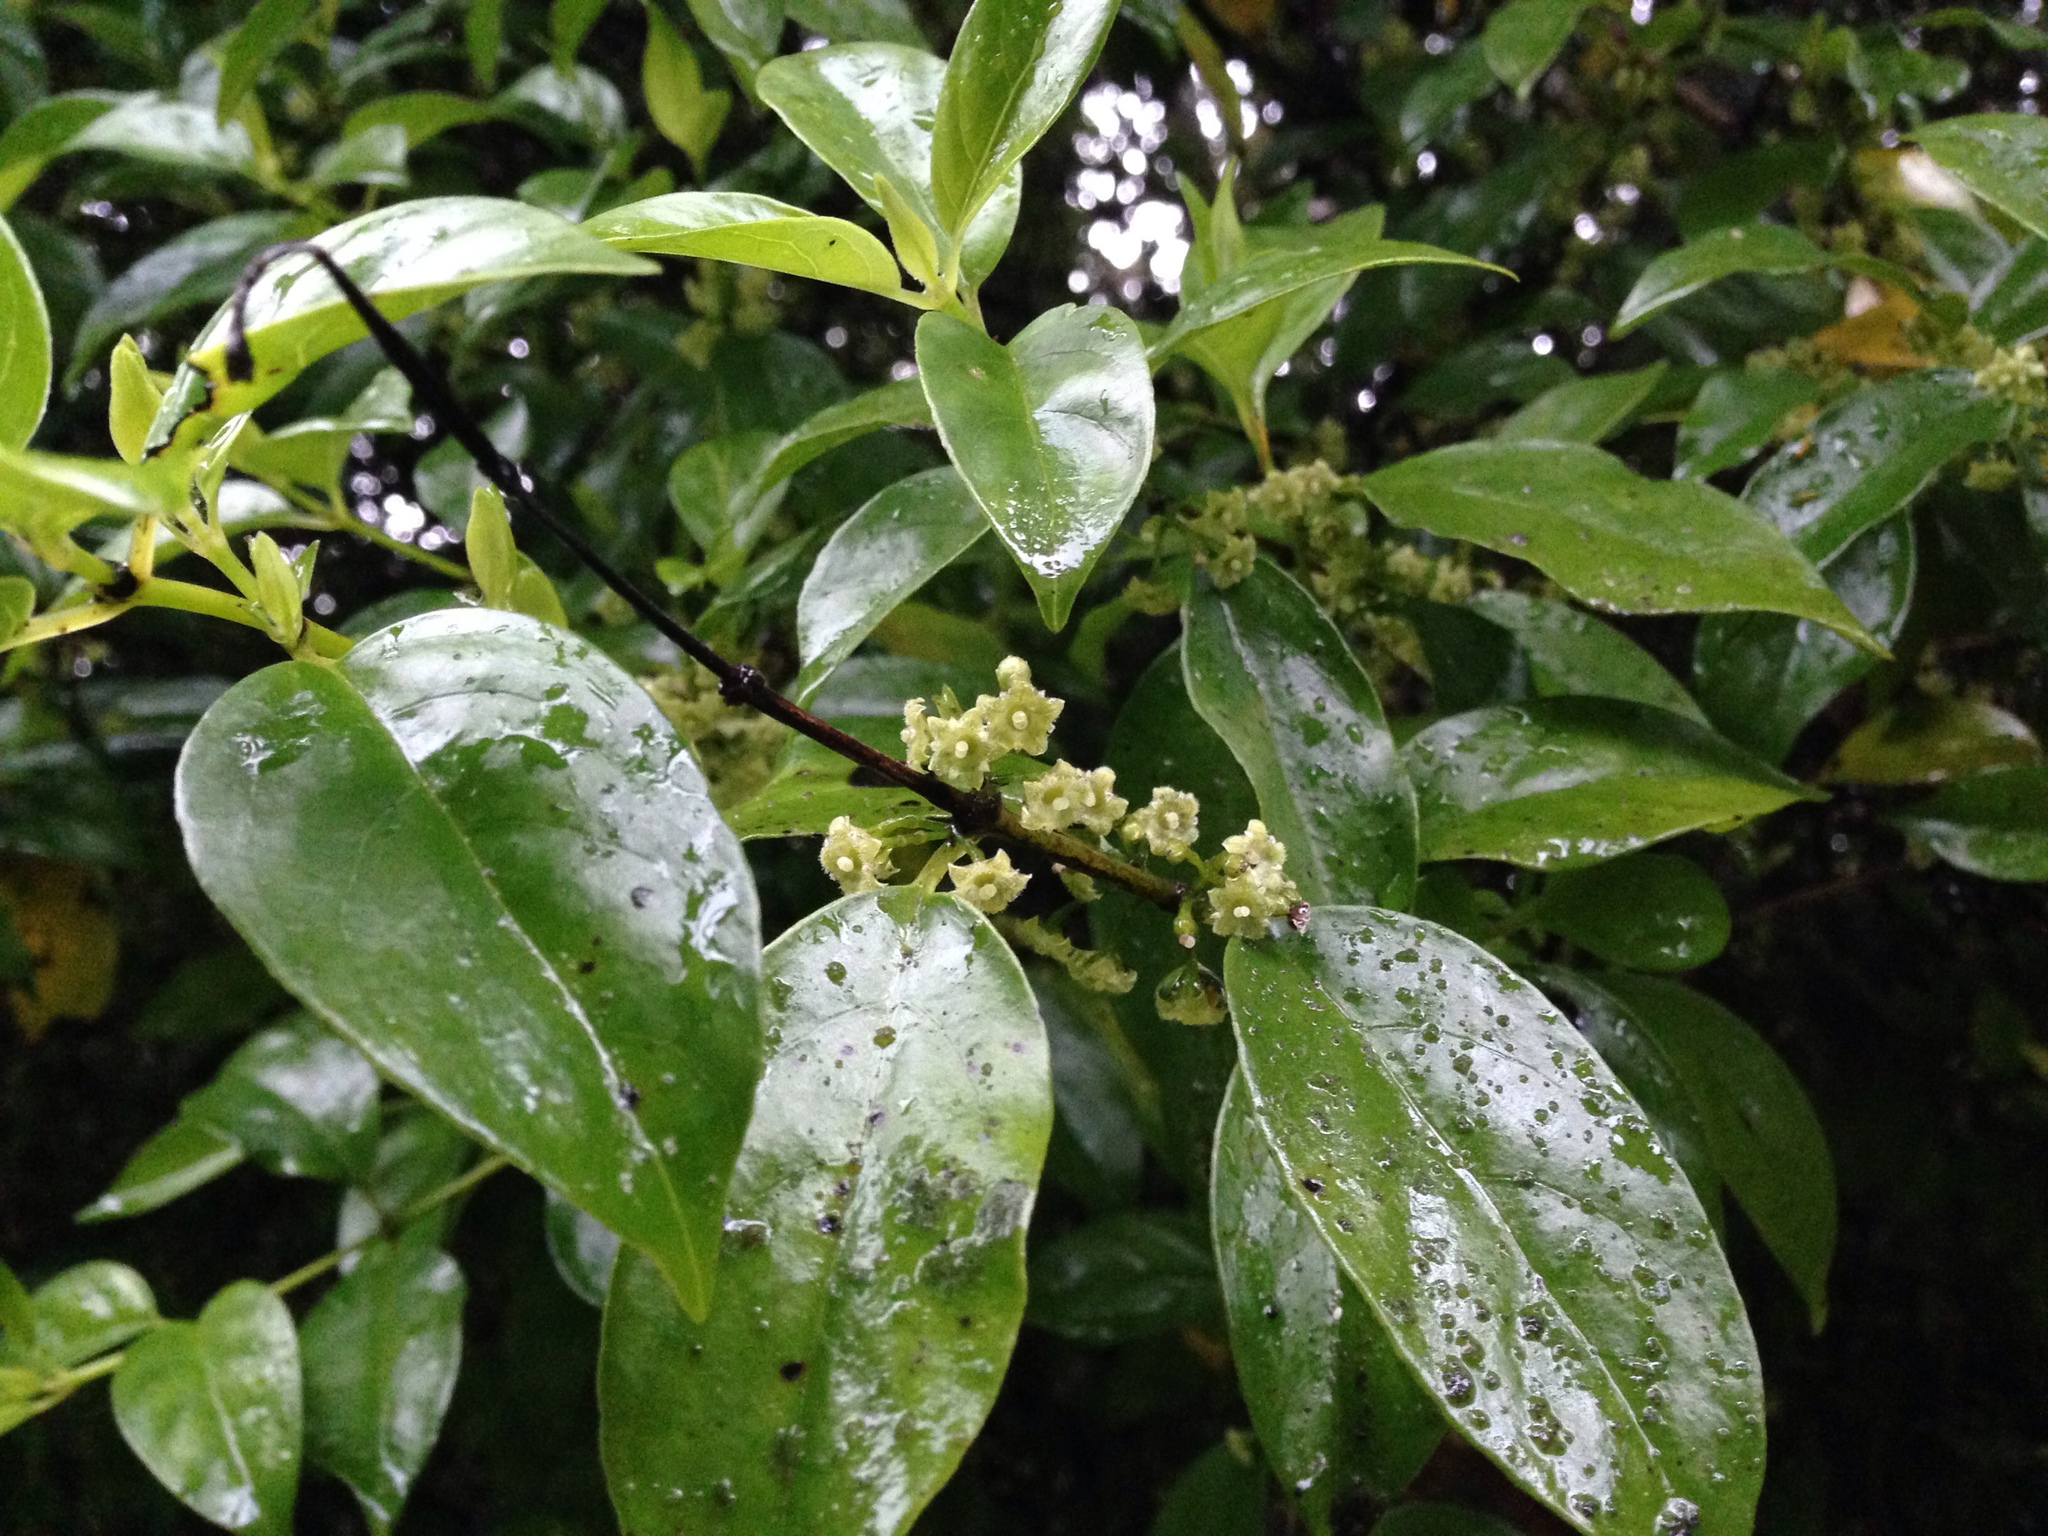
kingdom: Plantae
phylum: Tracheophyta
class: Magnoliopsida
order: Gentianales
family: Loganiaceae
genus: Geniostoma
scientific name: Geniostoma ligustrifolium
